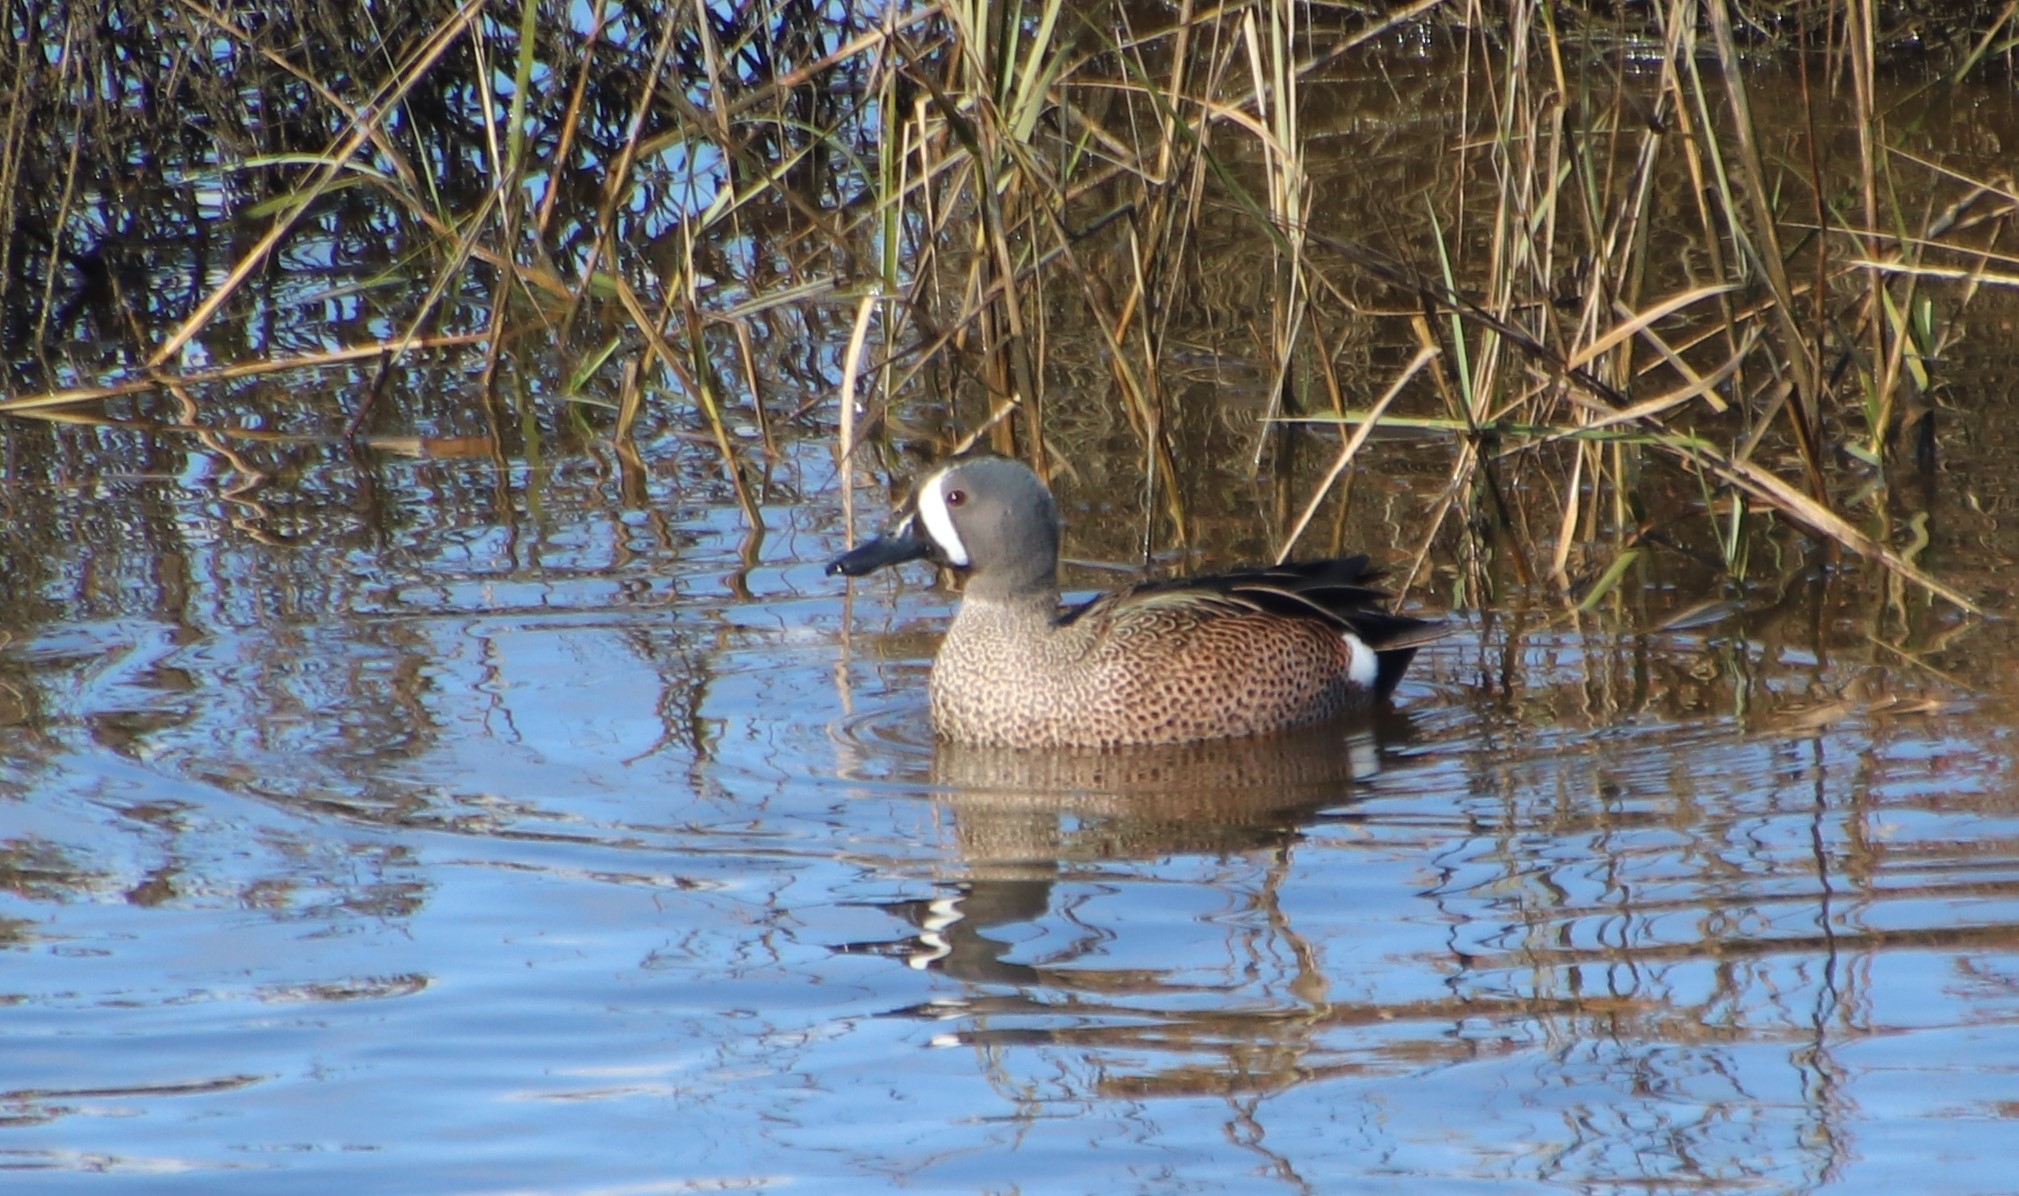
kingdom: Animalia
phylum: Chordata
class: Aves
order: Anseriformes
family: Anatidae
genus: Spatula
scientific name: Spatula discors
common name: Blue-winged teal
